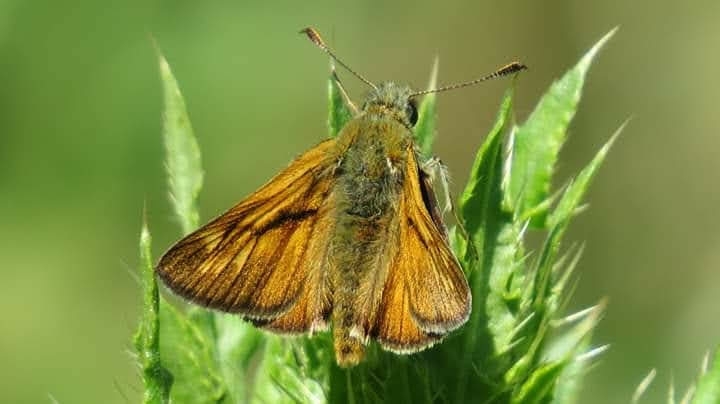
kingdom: Animalia
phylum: Arthropoda
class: Insecta
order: Lepidoptera
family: Hesperiidae
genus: Ochlodes
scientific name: Ochlodes venata
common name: Large skipper
